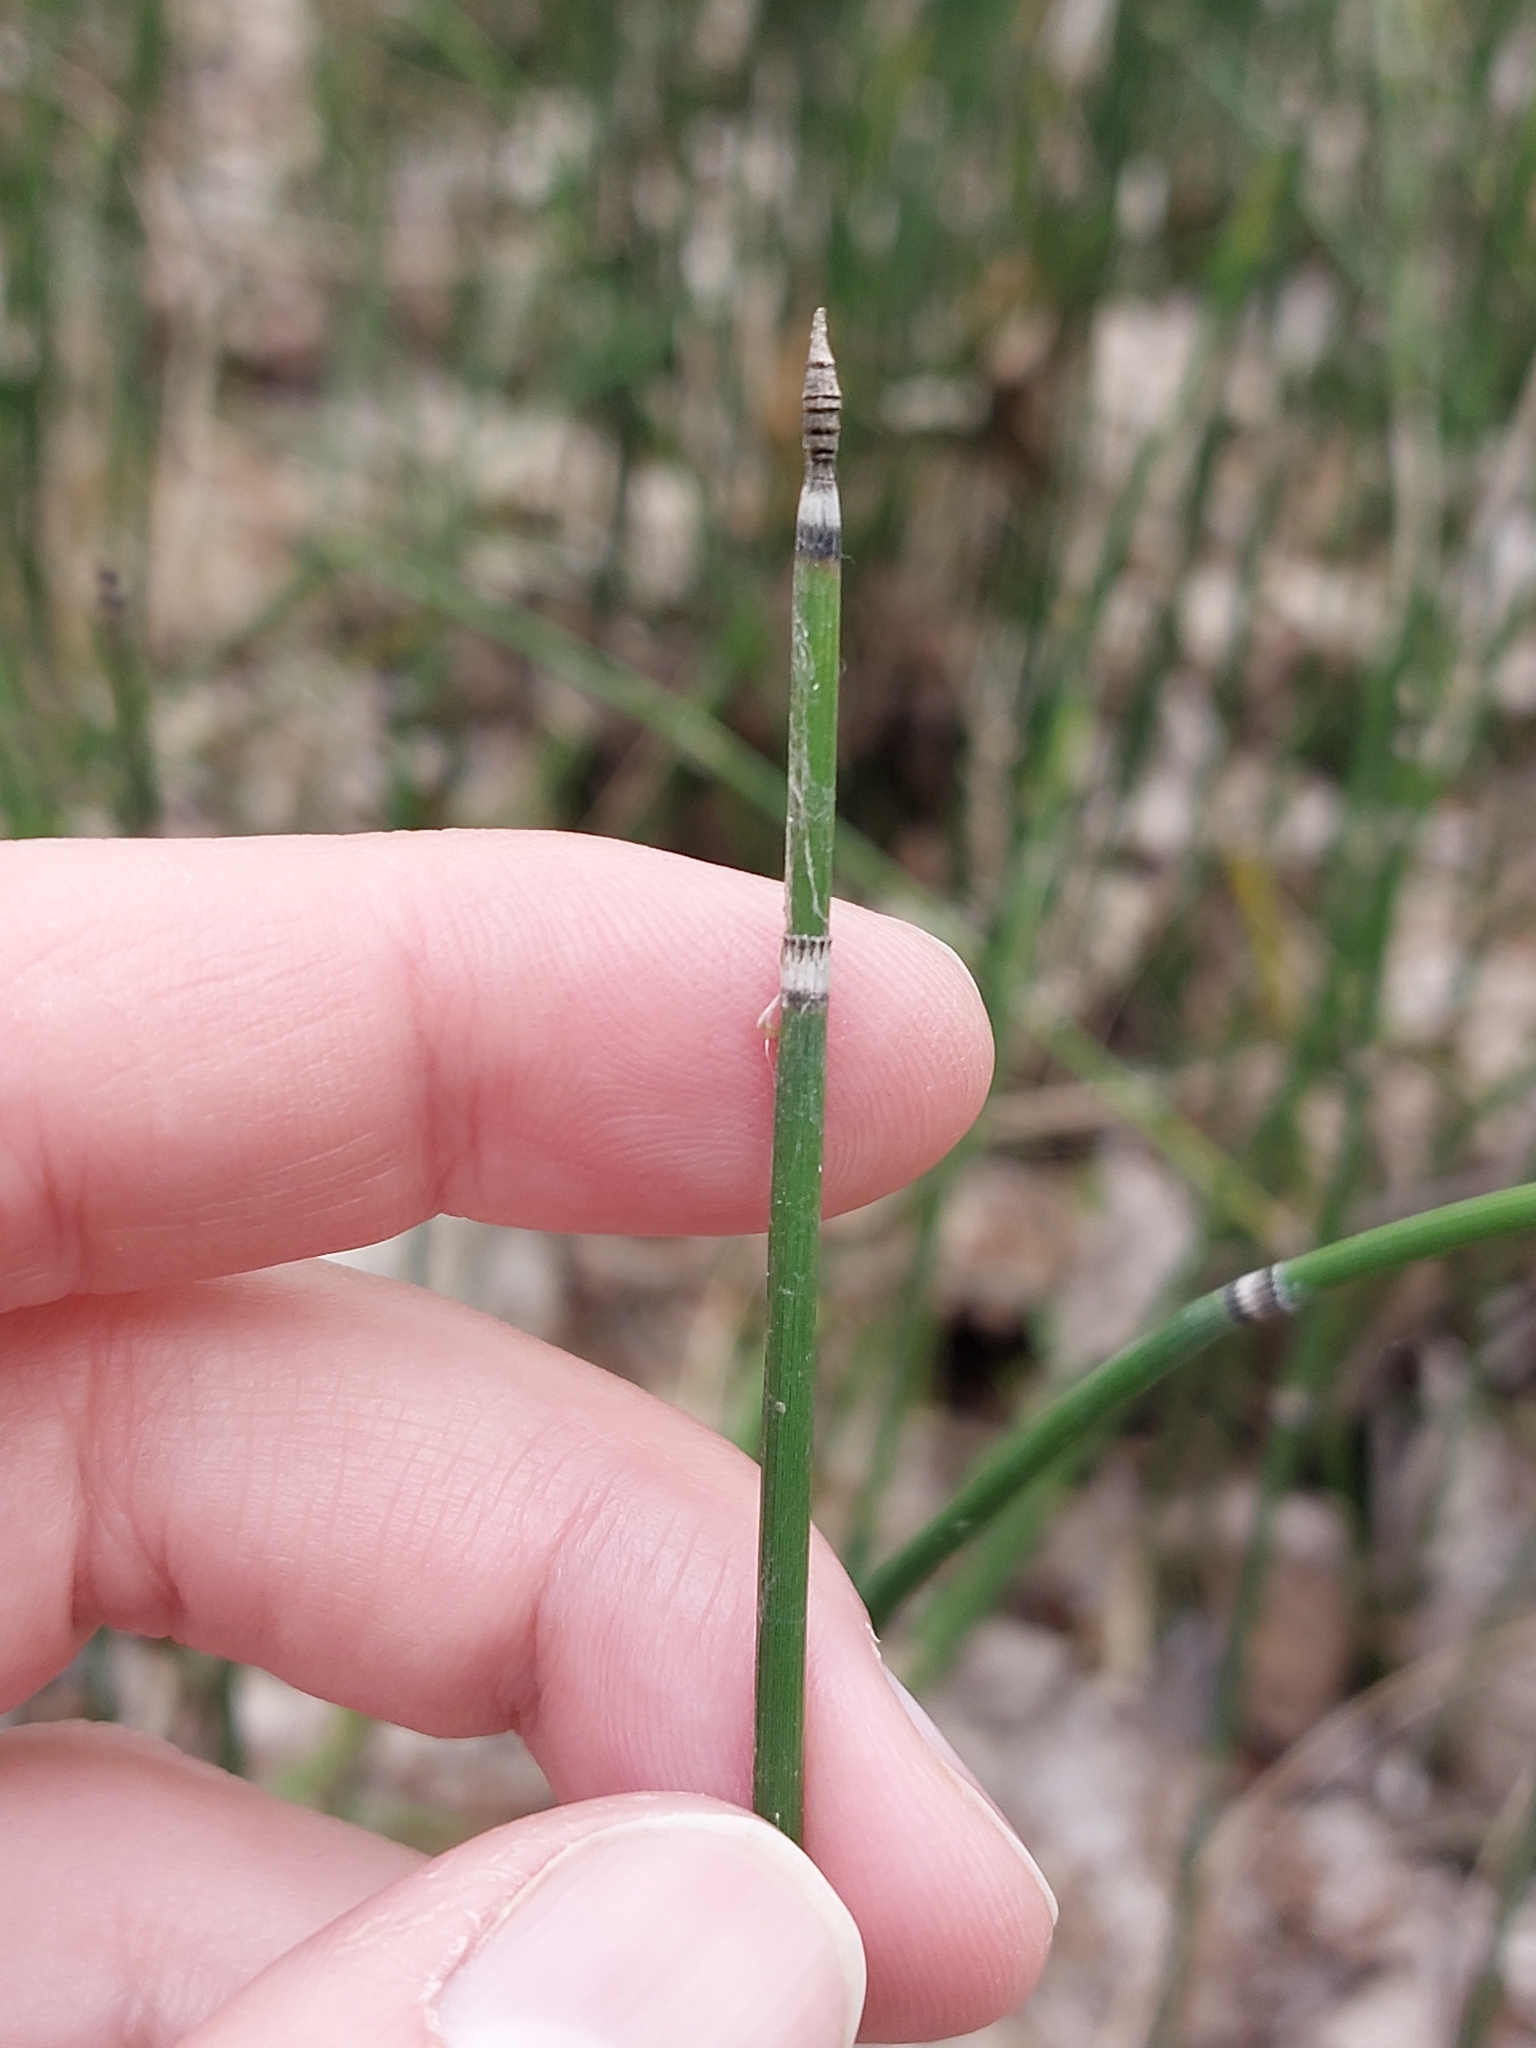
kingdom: Plantae
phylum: Tracheophyta
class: Polypodiopsida
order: Equisetales
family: Equisetaceae
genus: Equisetum
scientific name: Equisetum hyemale
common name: Rough horsetail
